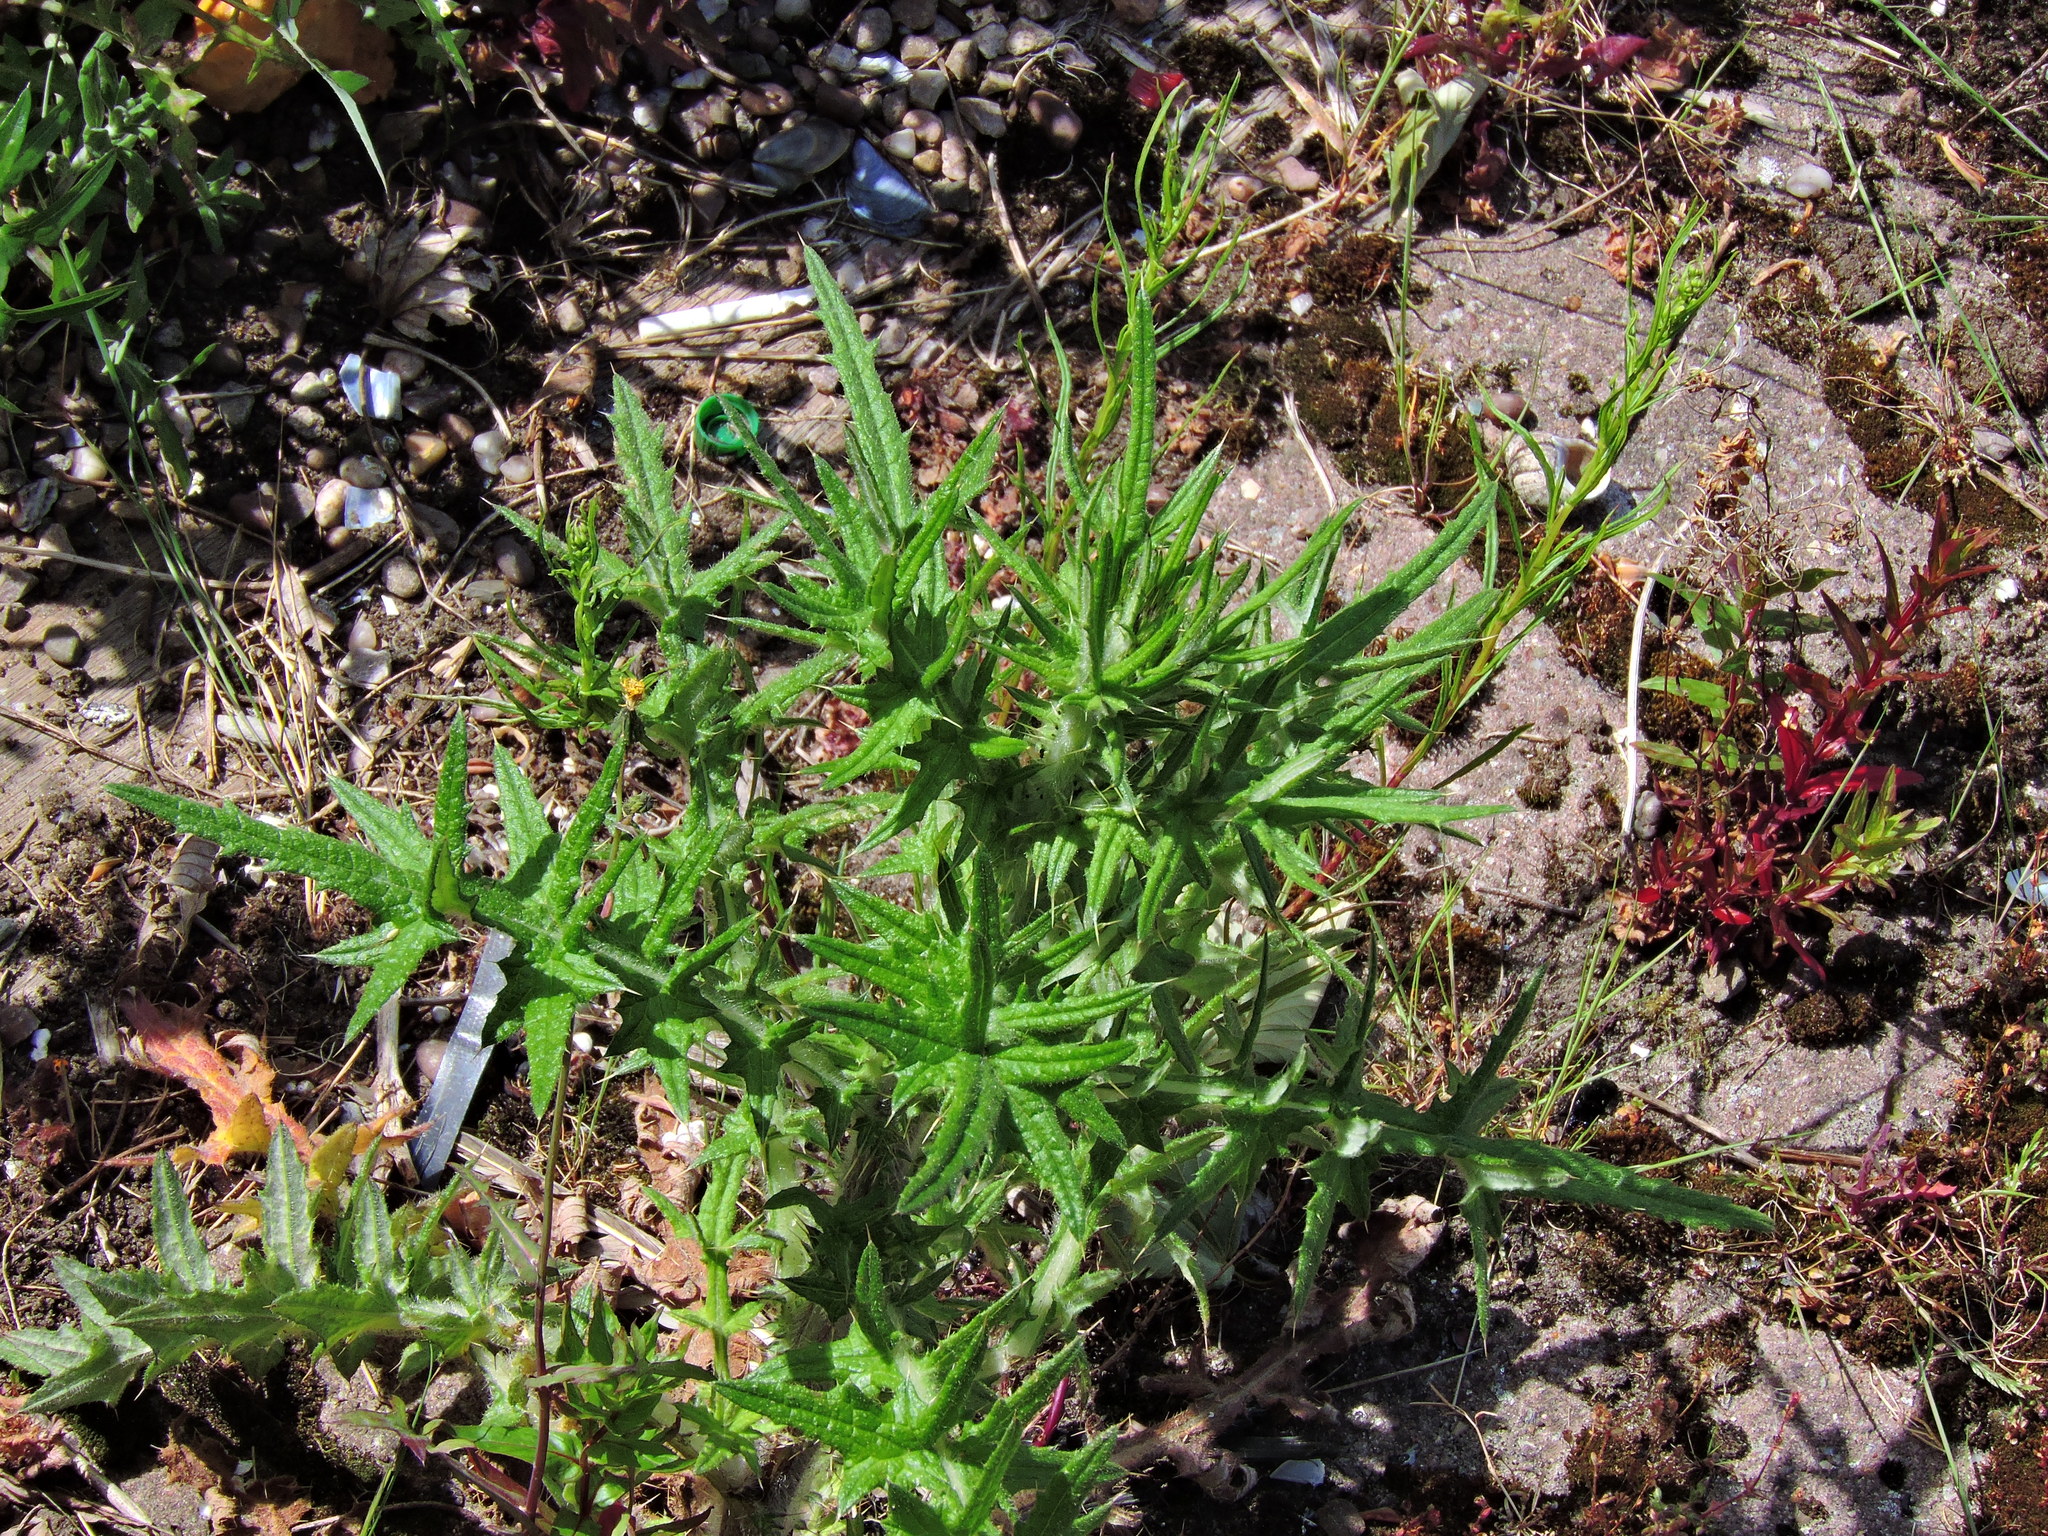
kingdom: Plantae
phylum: Tracheophyta
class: Magnoliopsida
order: Asterales
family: Asteraceae
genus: Cirsium
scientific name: Cirsium vulgare
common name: Bull thistle
